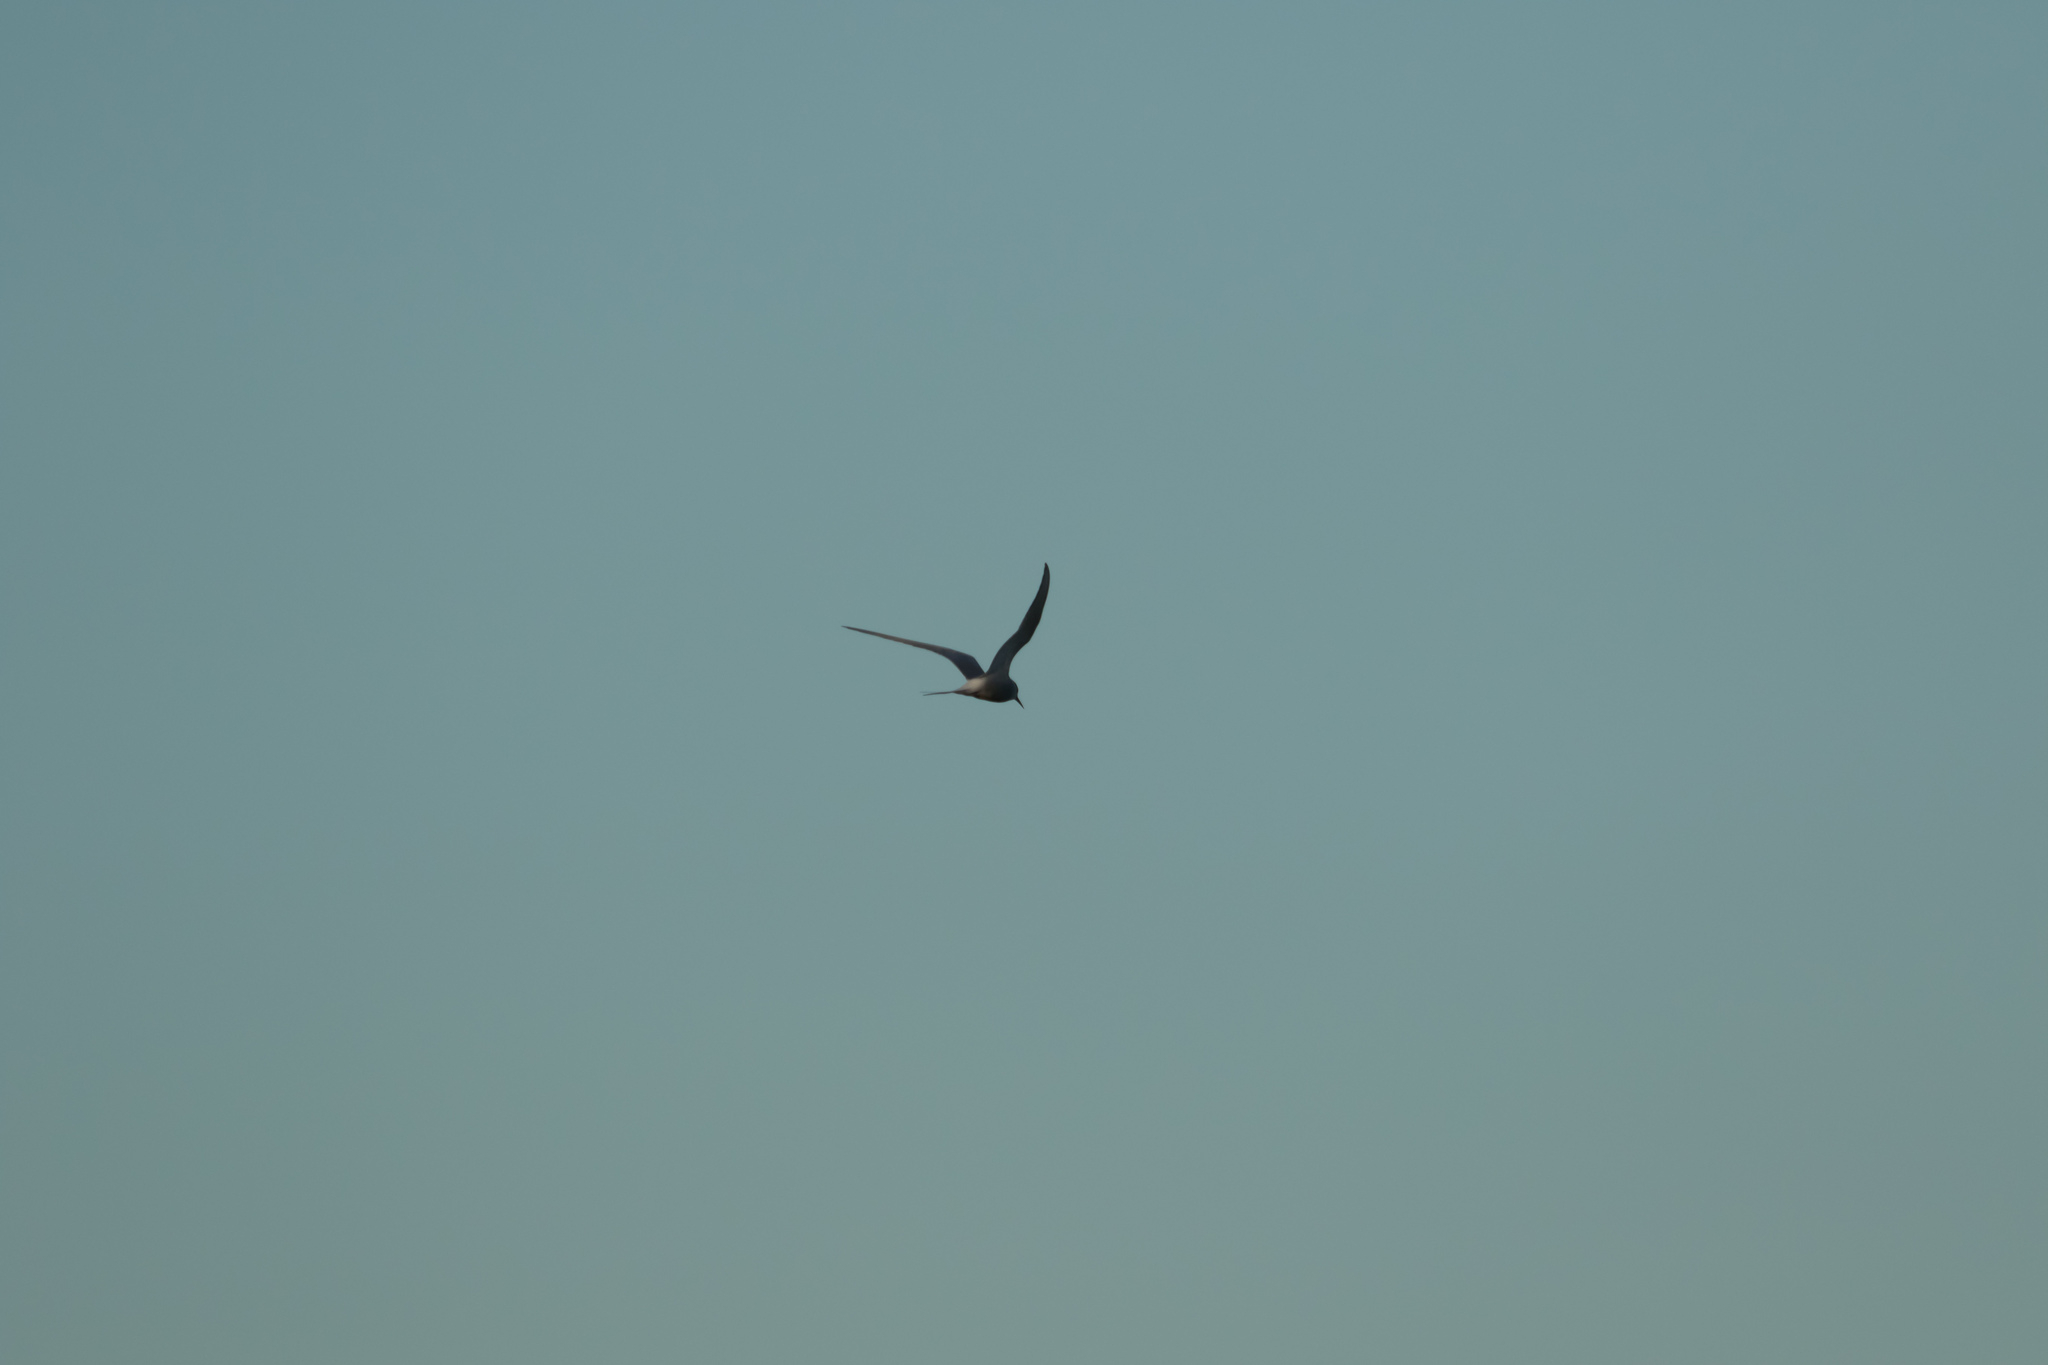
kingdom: Animalia
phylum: Chordata
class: Aves
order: Charadriiformes
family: Laridae
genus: Sterna
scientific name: Sterna paradisaea
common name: Arctic tern
